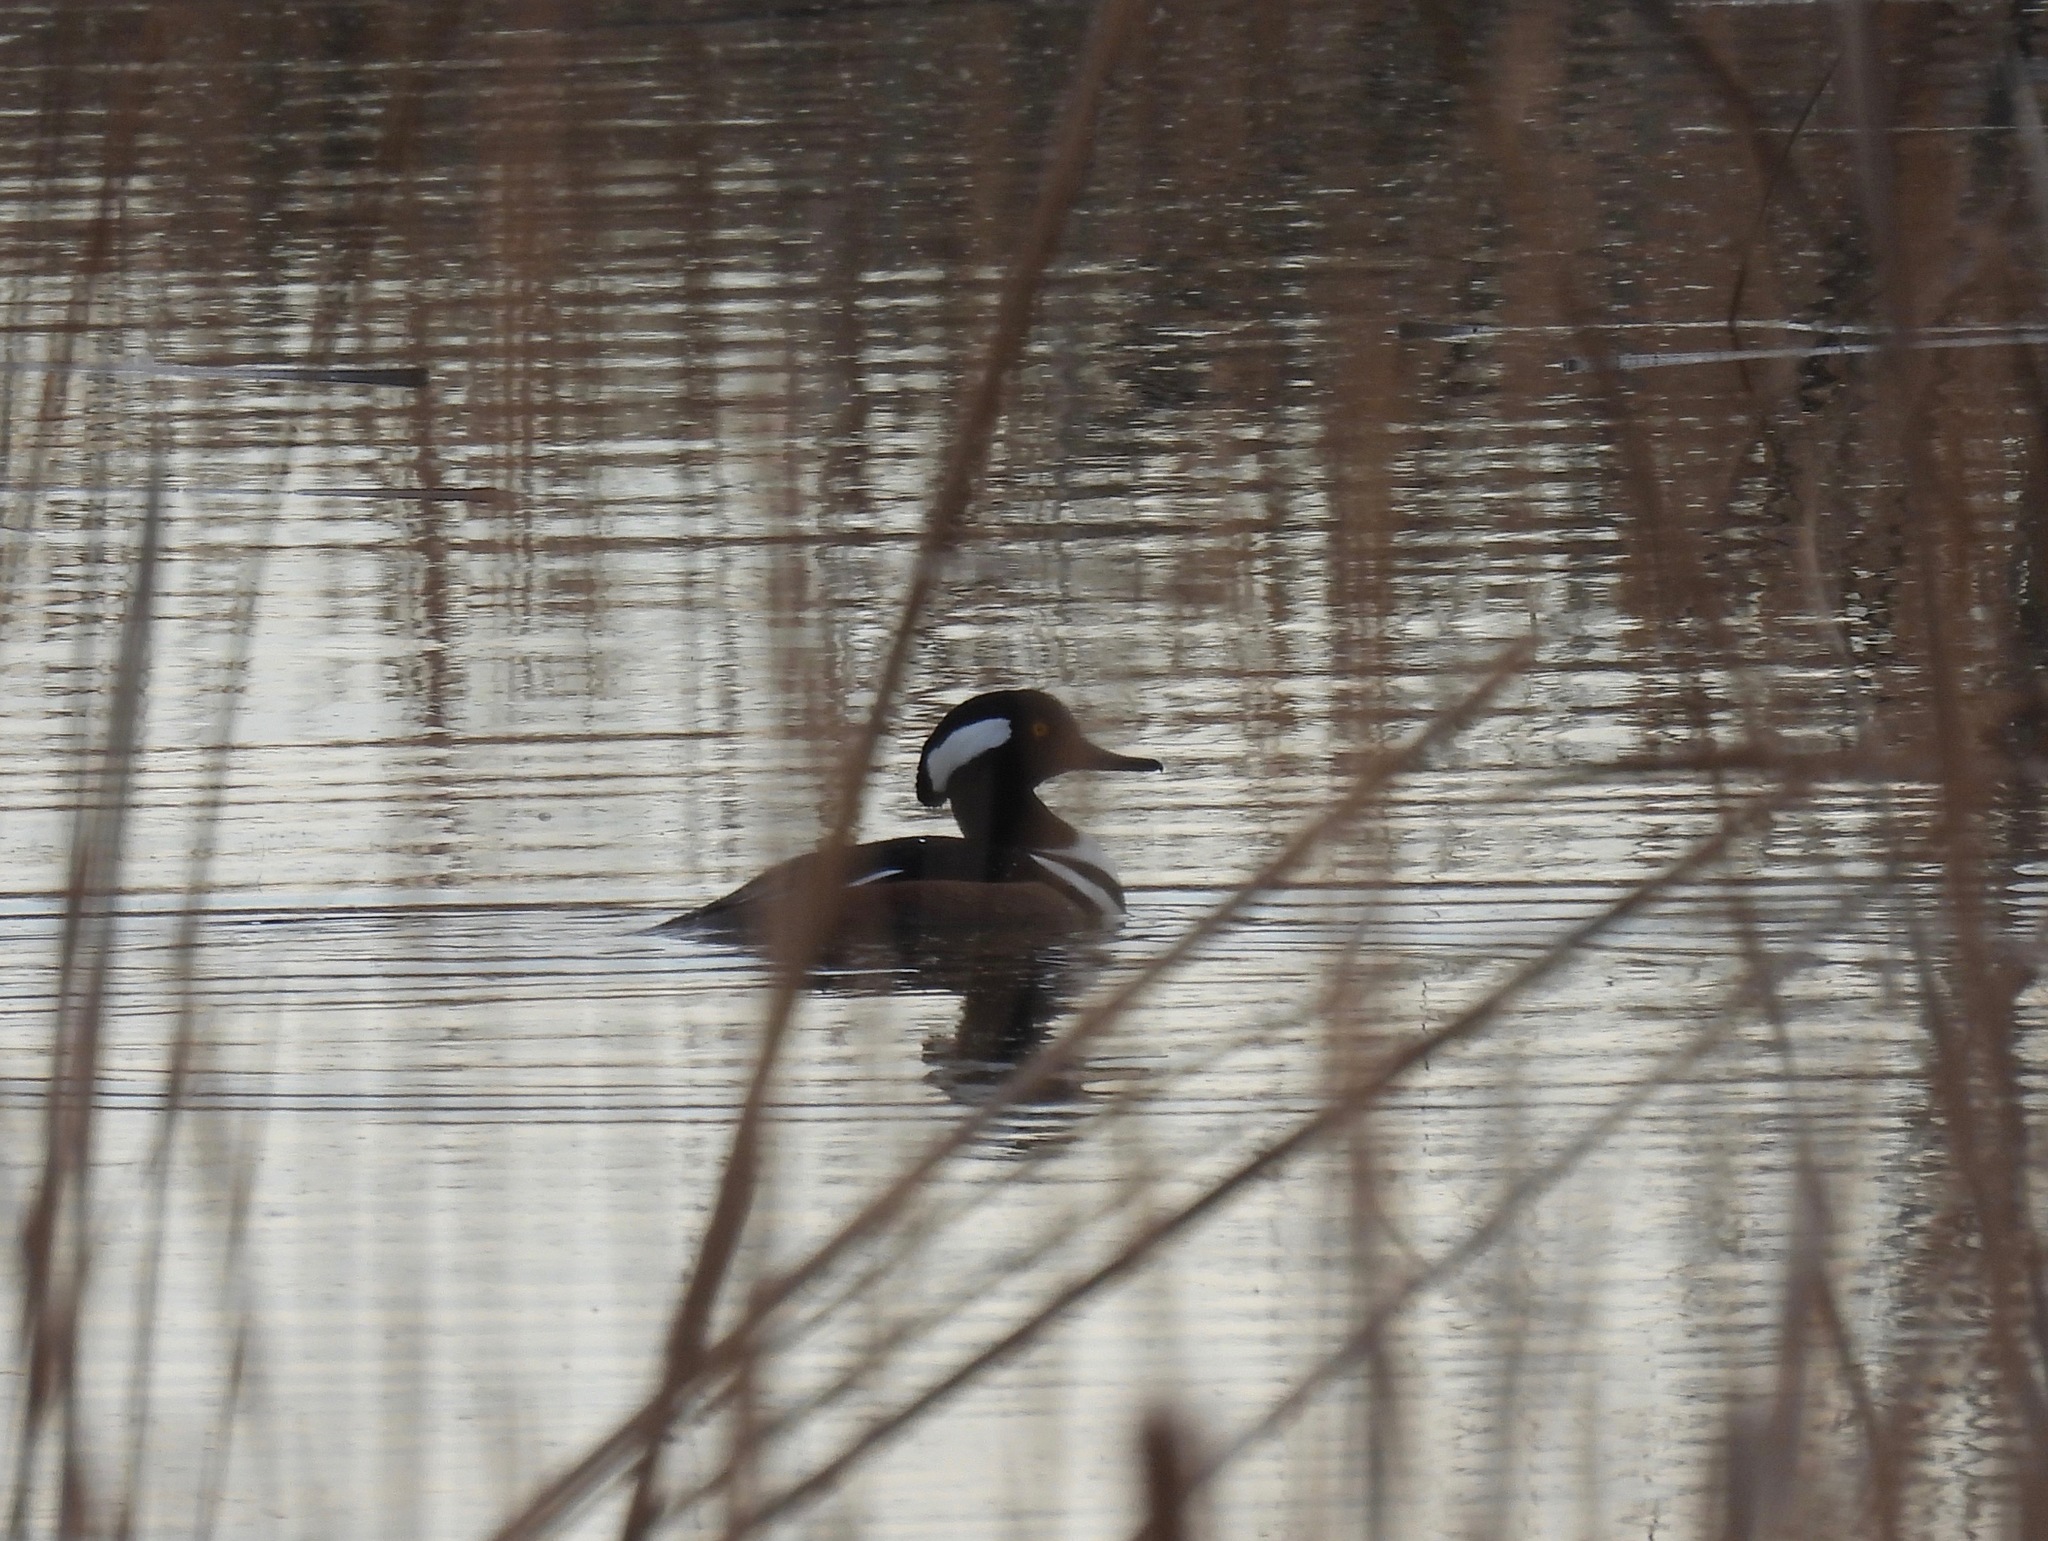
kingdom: Animalia
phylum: Chordata
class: Aves
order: Anseriformes
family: Anatidae
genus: Lophodytes
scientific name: Lophodytes cucullatus
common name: Hooded merganser
